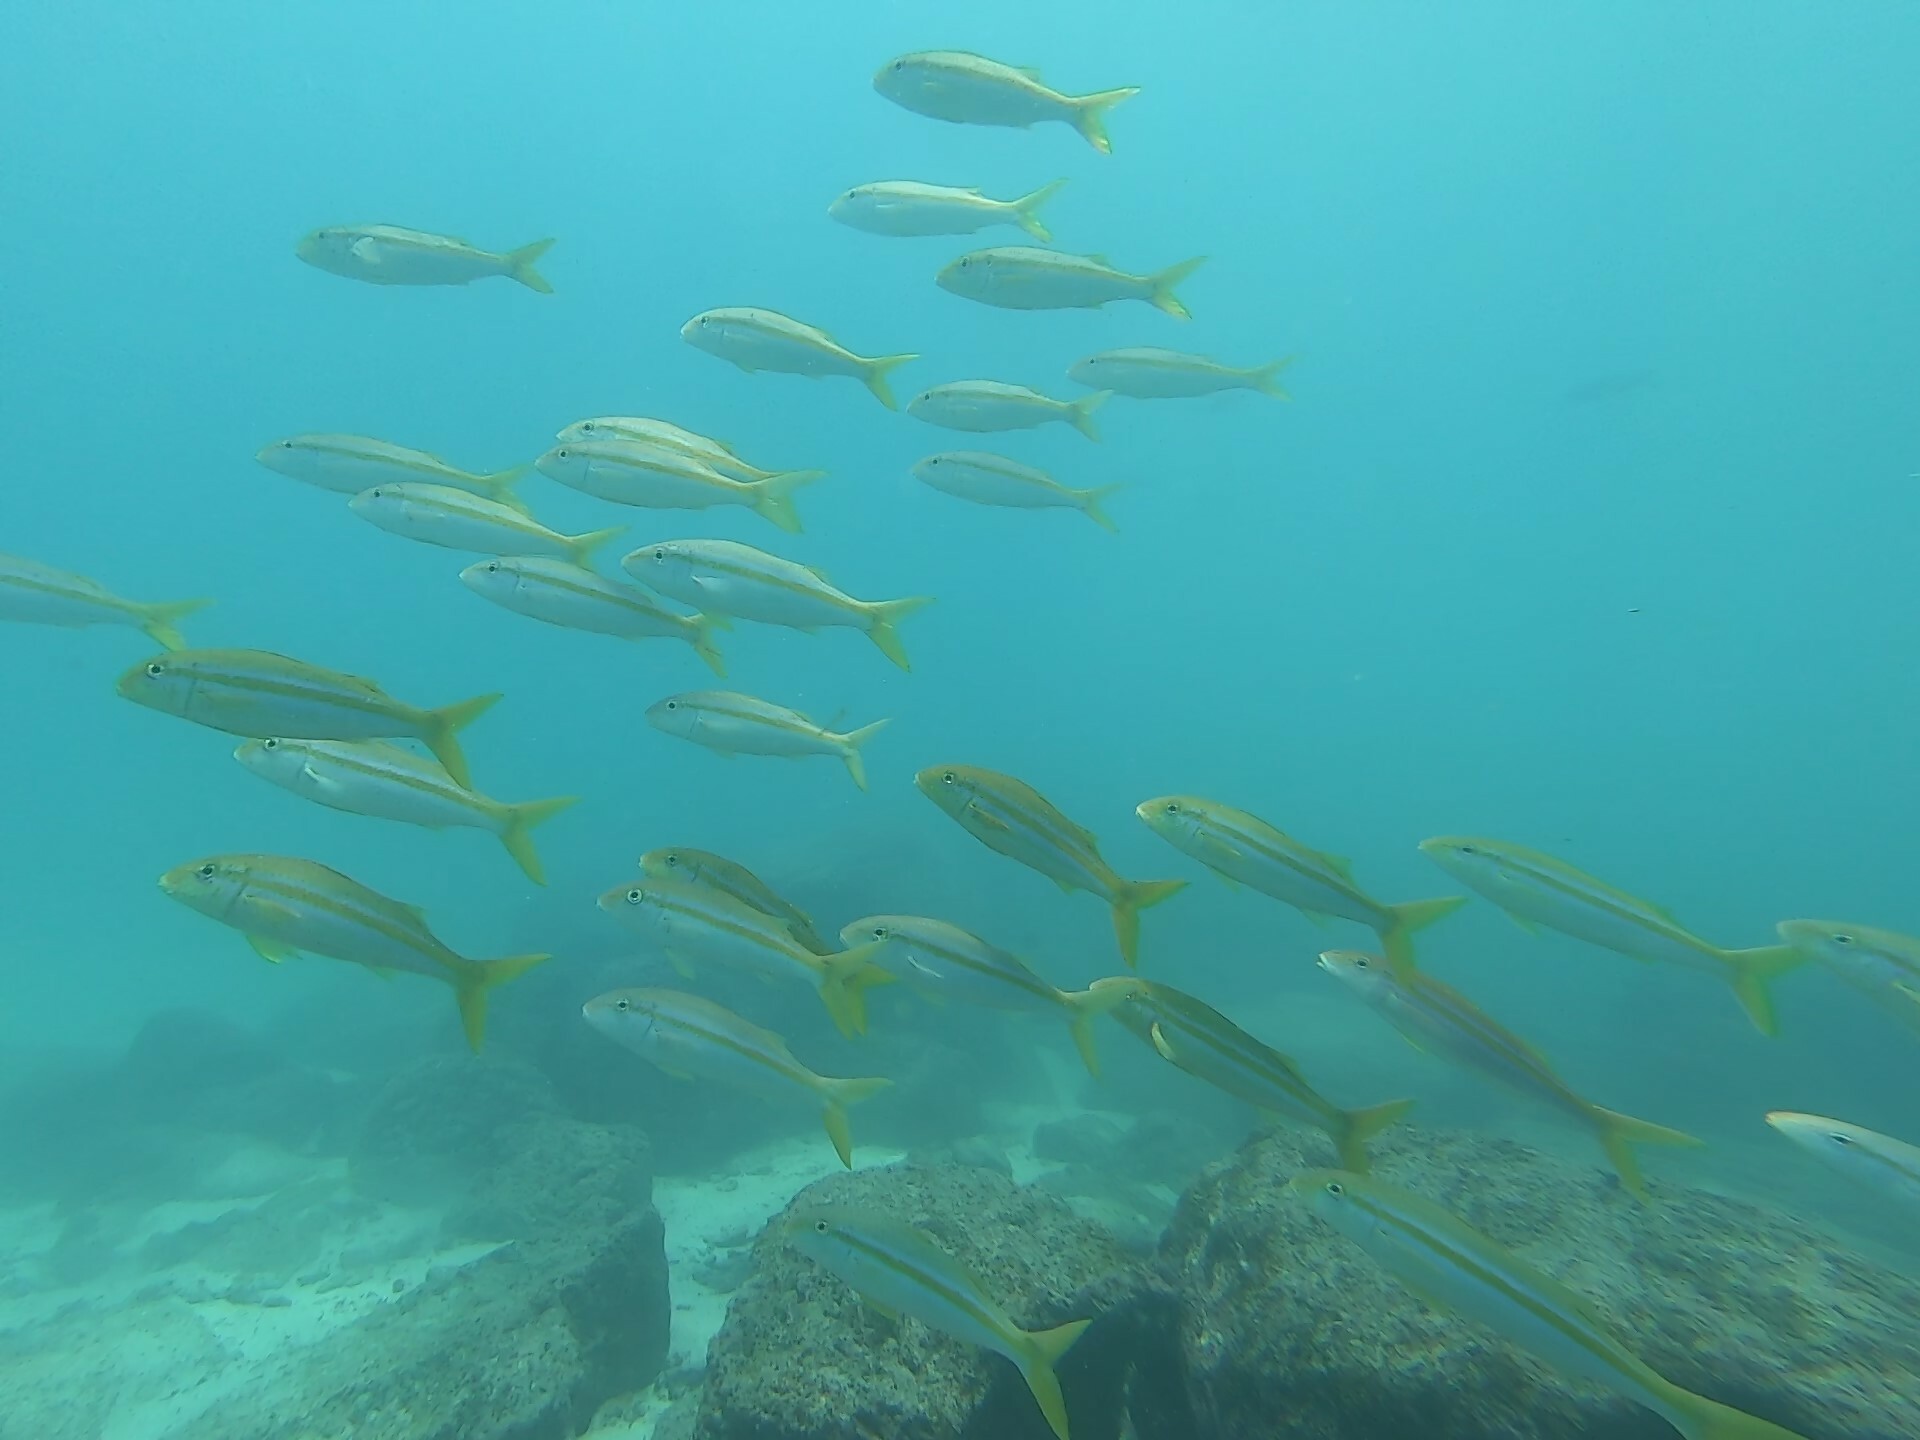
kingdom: Animalia
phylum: Chordata
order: Perciformes
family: Mullidae
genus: Mulloidichthys
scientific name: Mulloidichthys dentatus
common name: Mexican goatfish
